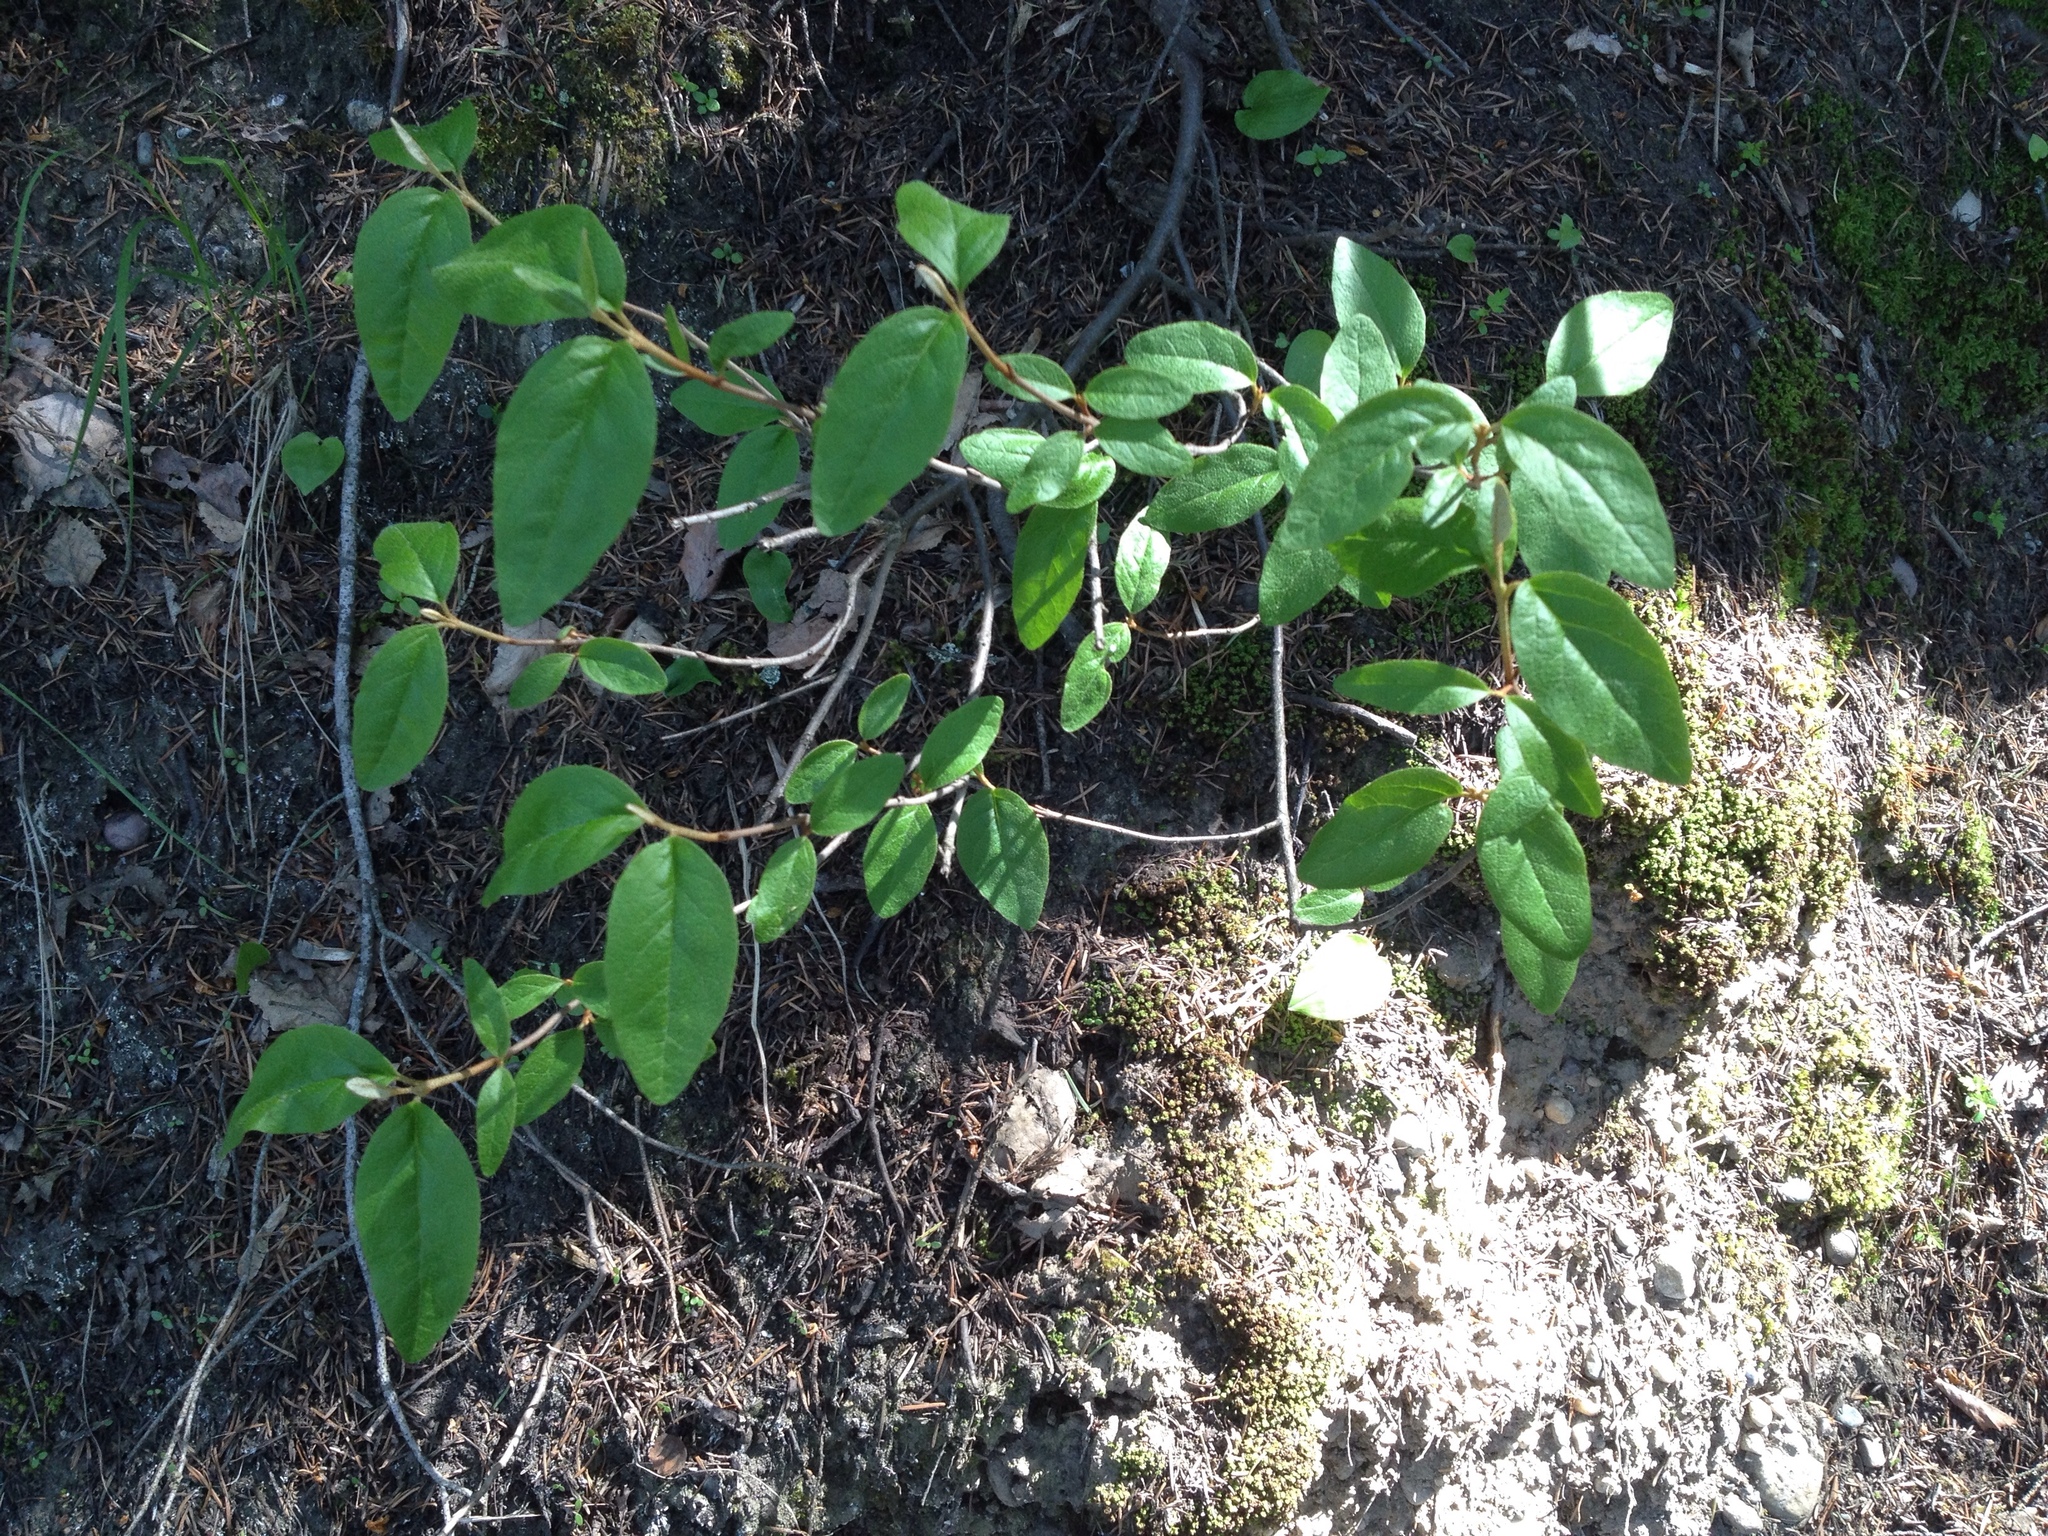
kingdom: Plantae
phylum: Tracheophyta
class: Magnoliopsida
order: Rosales
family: Elaeagnaceae
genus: Shepherdia
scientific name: Shepherdia canadensis
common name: Soapberry
